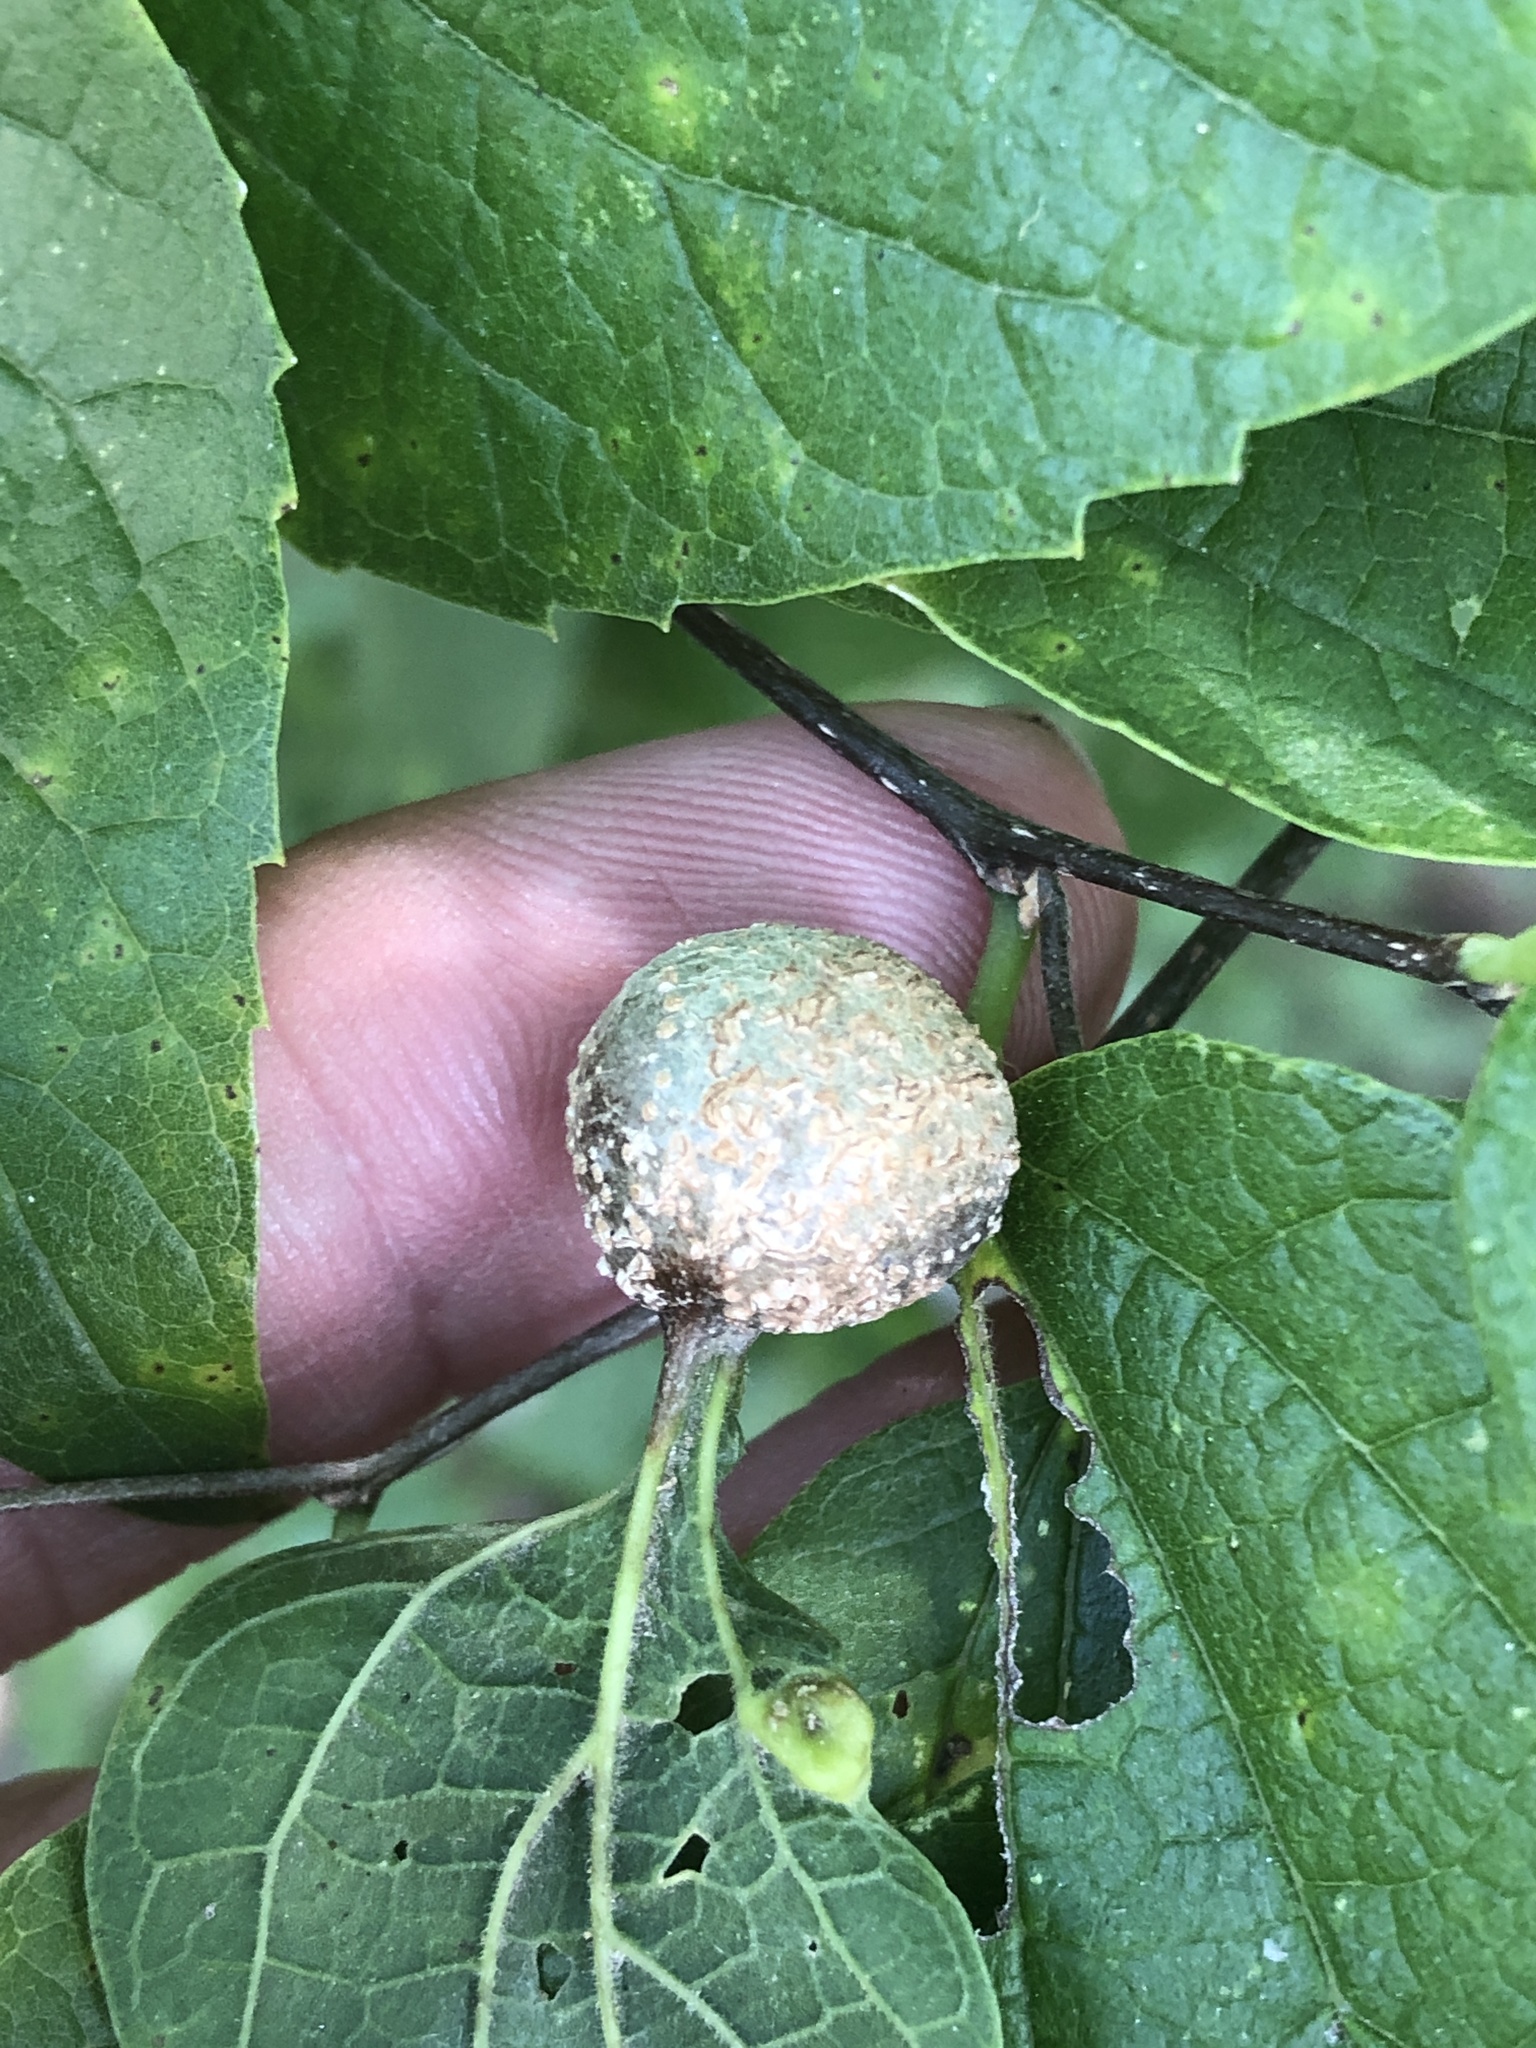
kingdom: Animalia
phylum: Arthropoda
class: Insecta
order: Hemiptera
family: Aphalaridae
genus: Pachypsylla
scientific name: Pachypsylla venusta
